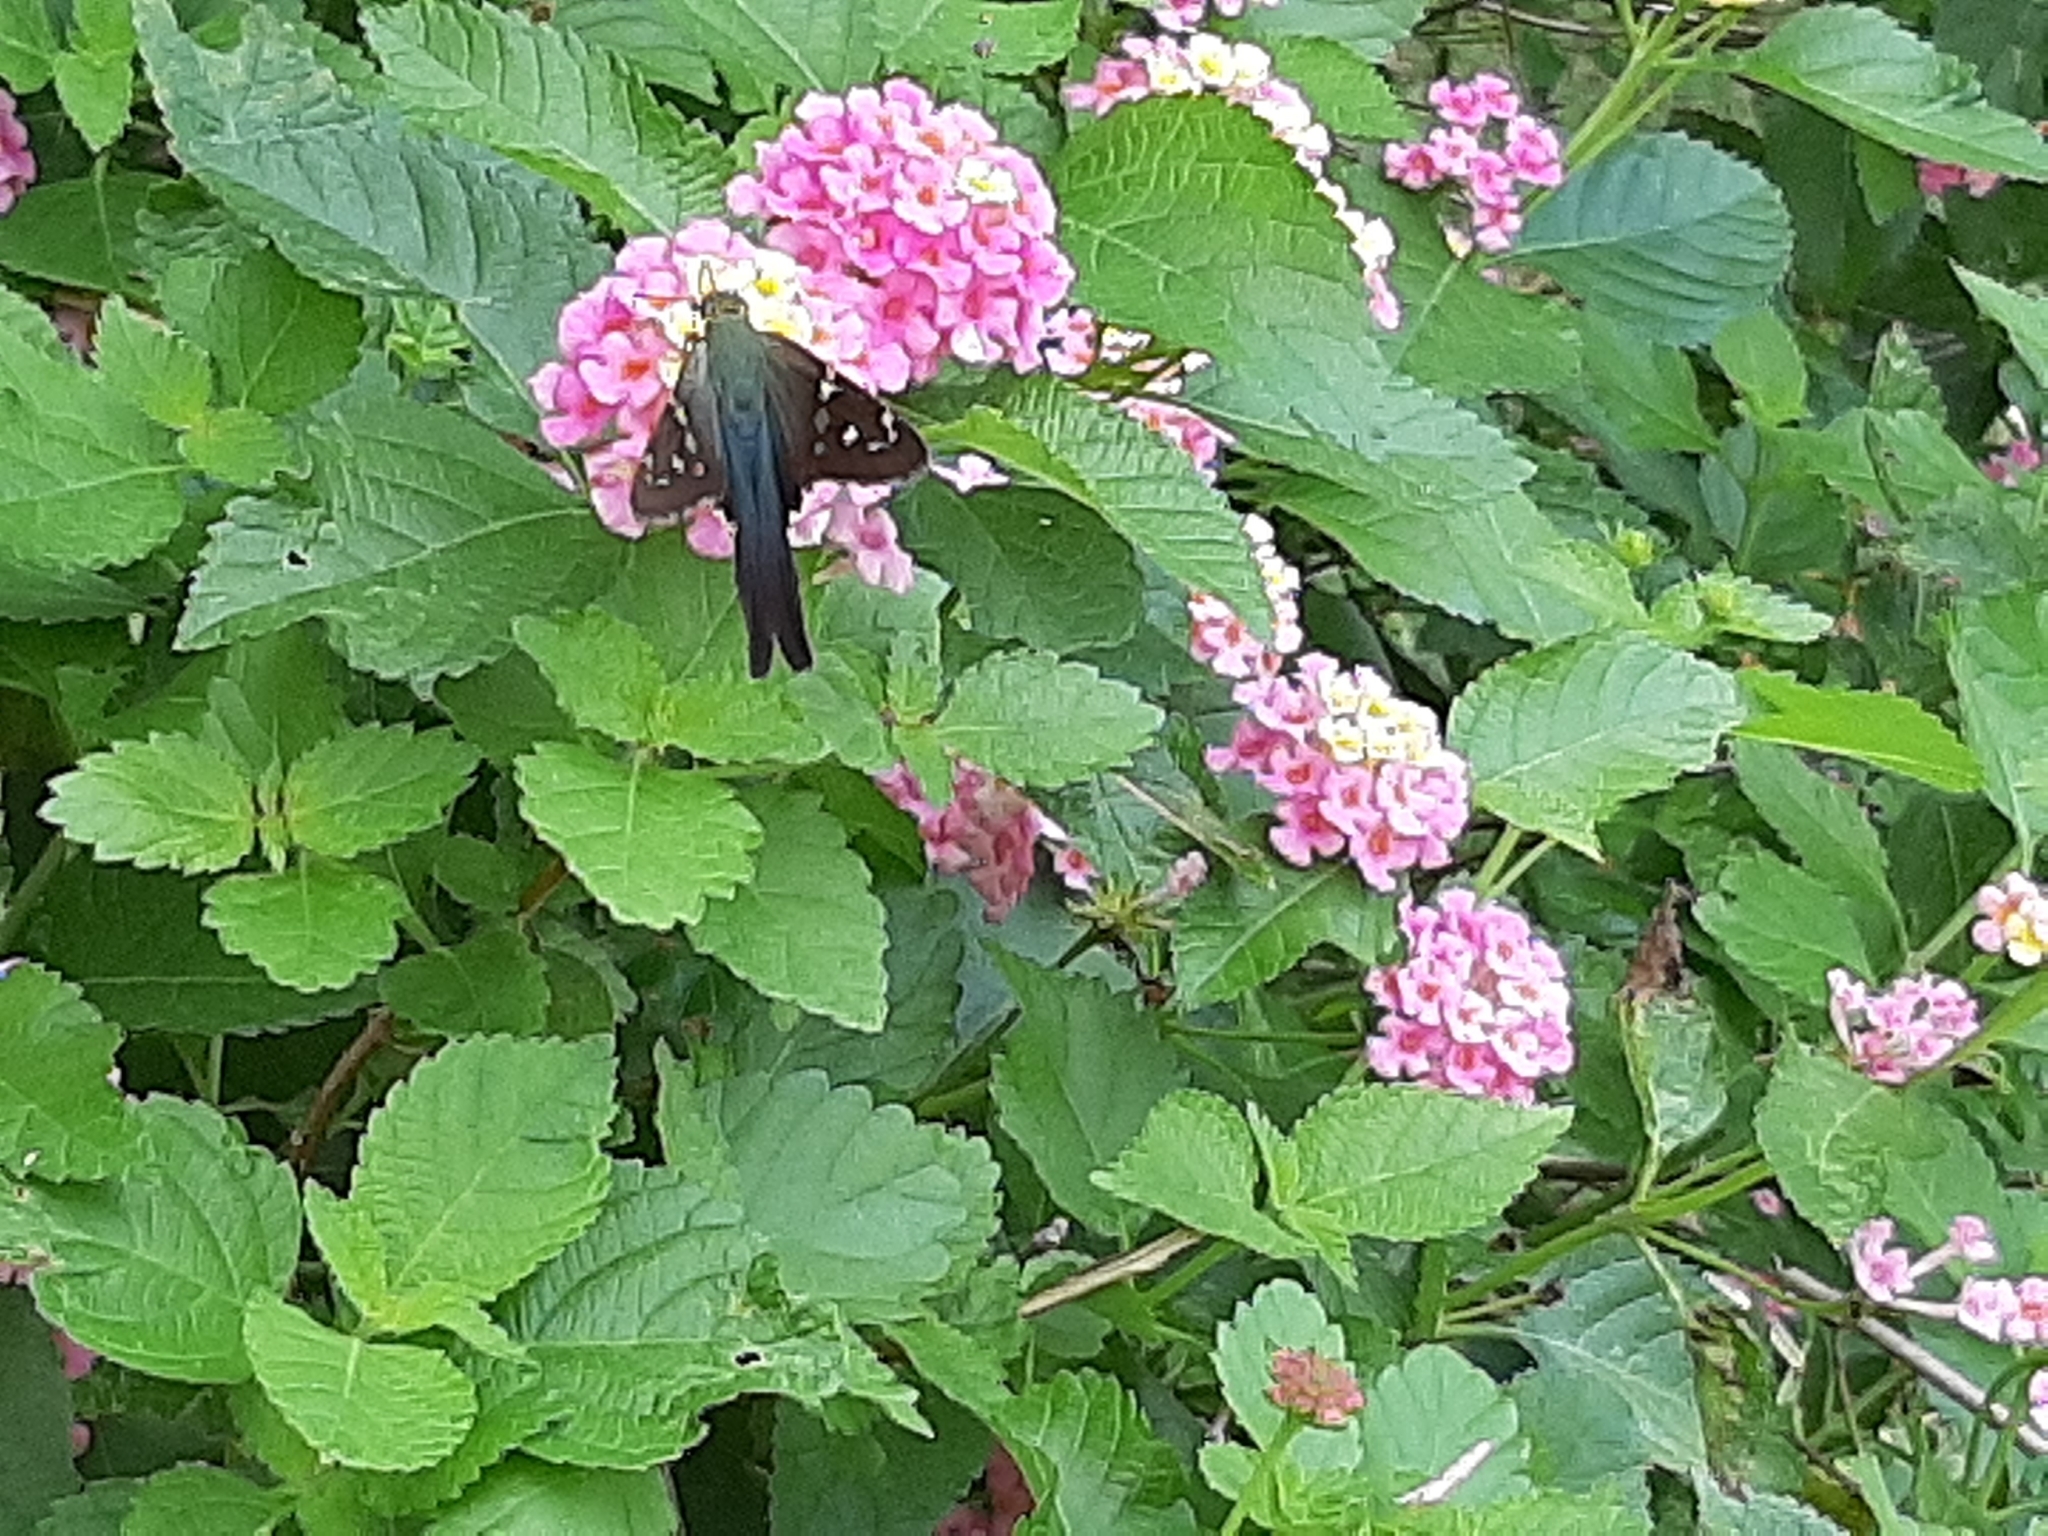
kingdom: Animalia
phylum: Arthropoda
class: Insecta
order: Lepidoptera
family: Hesperiidae
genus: Urbanus
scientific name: Urbanus proteus
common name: Long-tailed skipper
